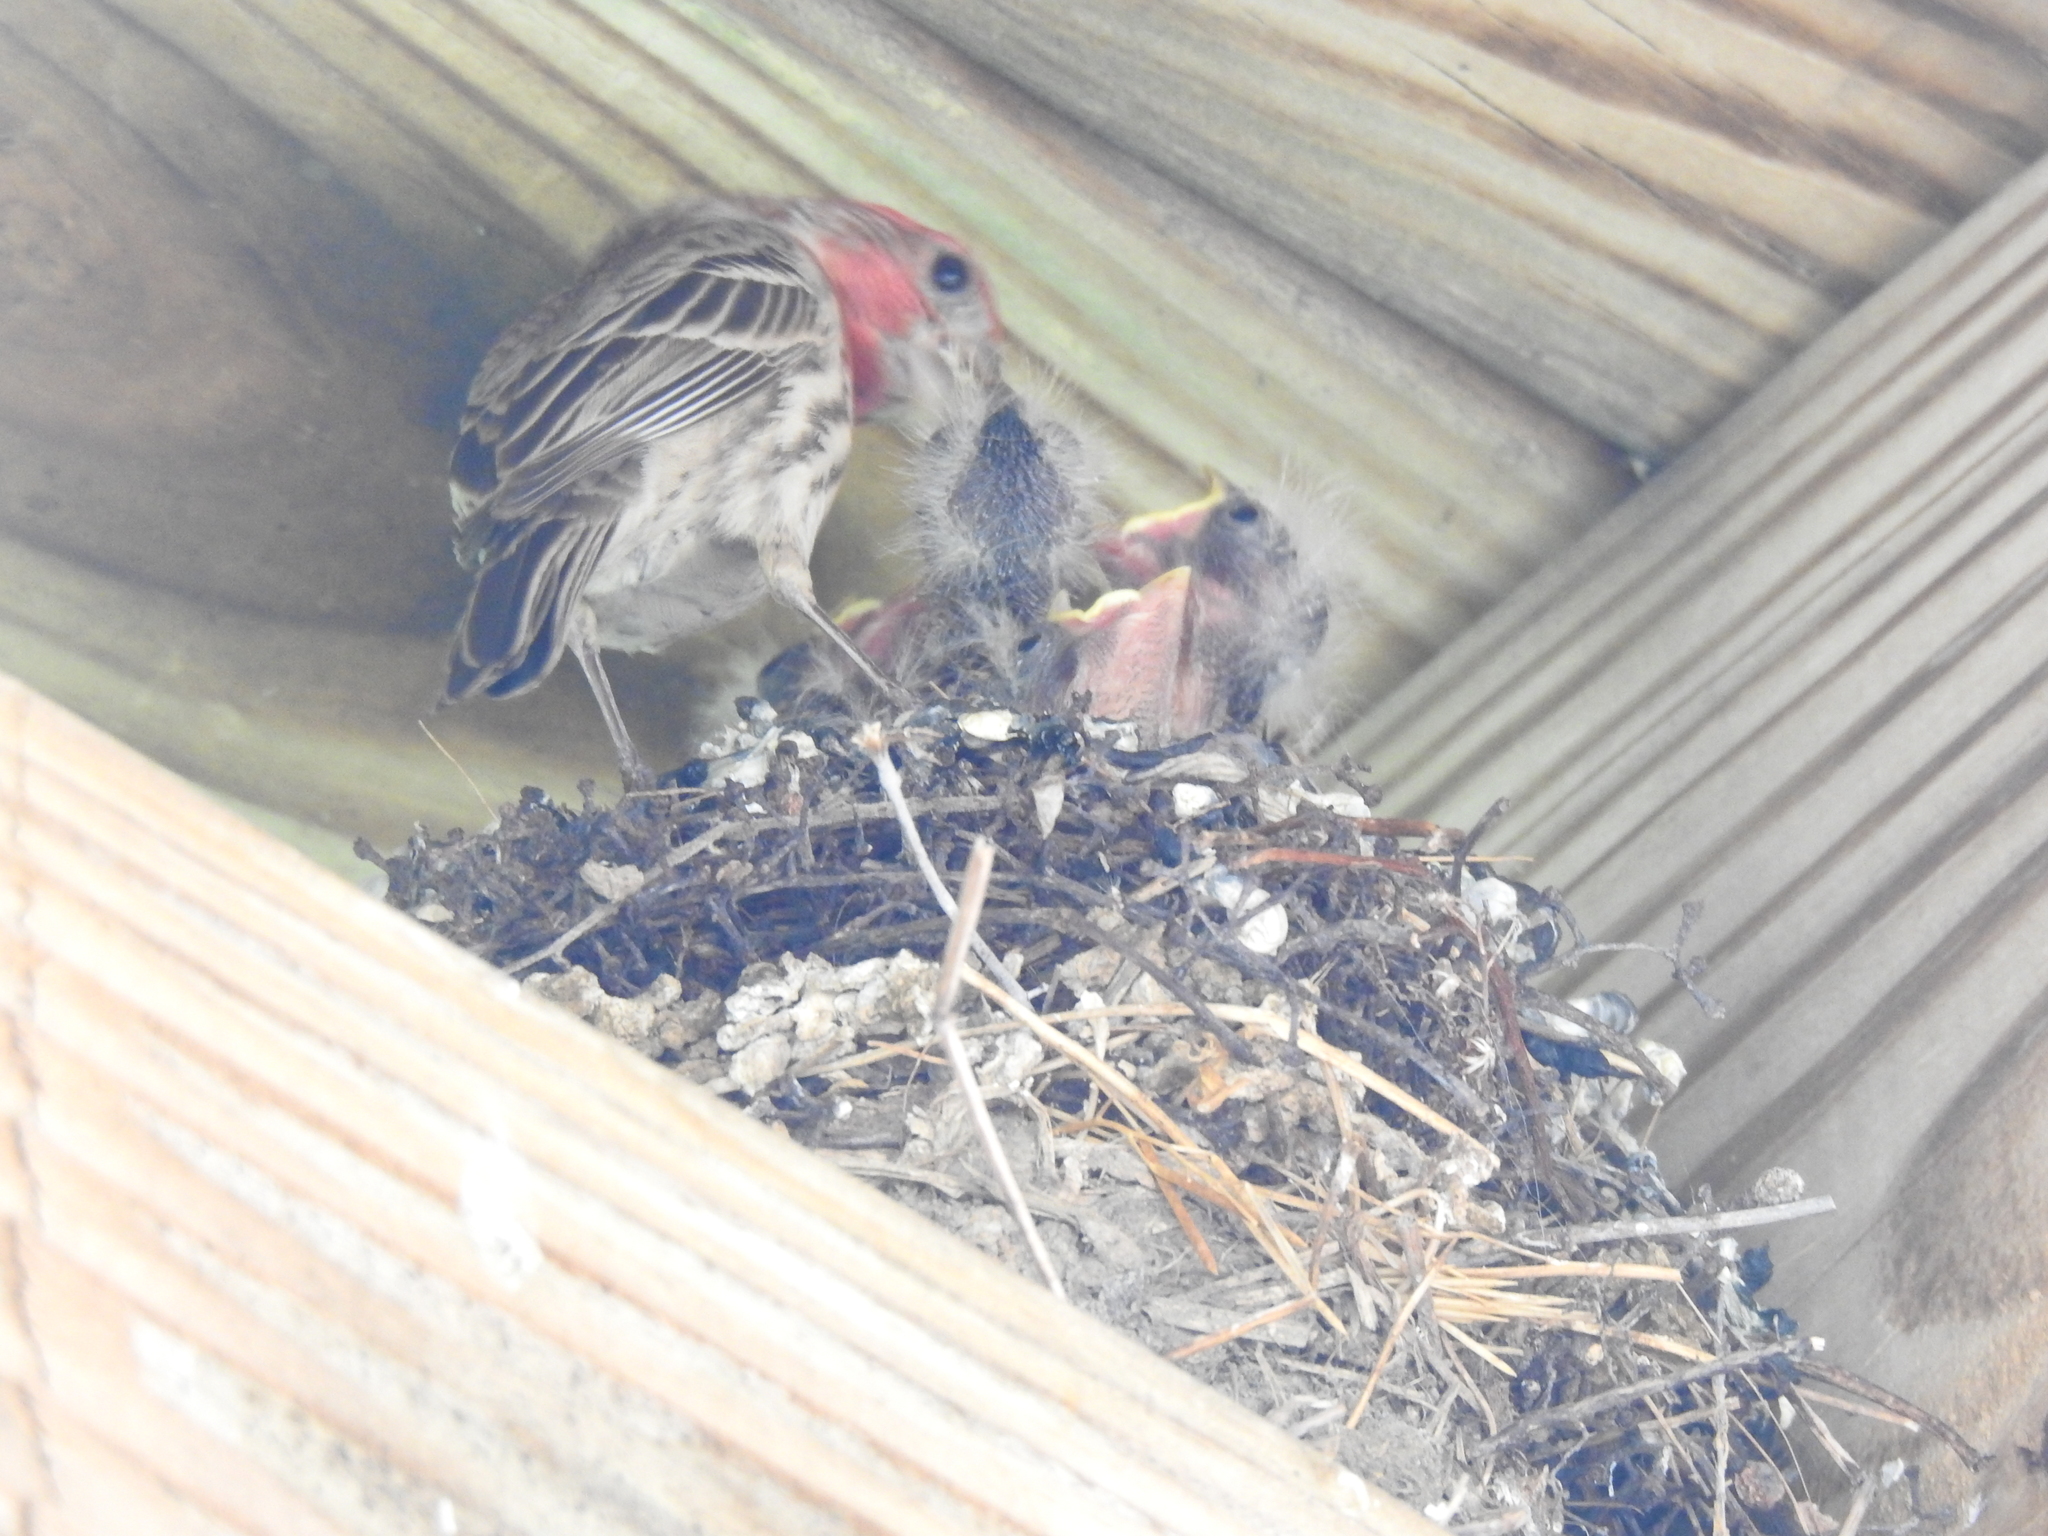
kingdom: Animalia
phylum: Chordata
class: Aves
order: Passeriformes
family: Fringillidae
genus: Haemorhous
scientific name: Haemorhous mexicanus
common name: House finch
